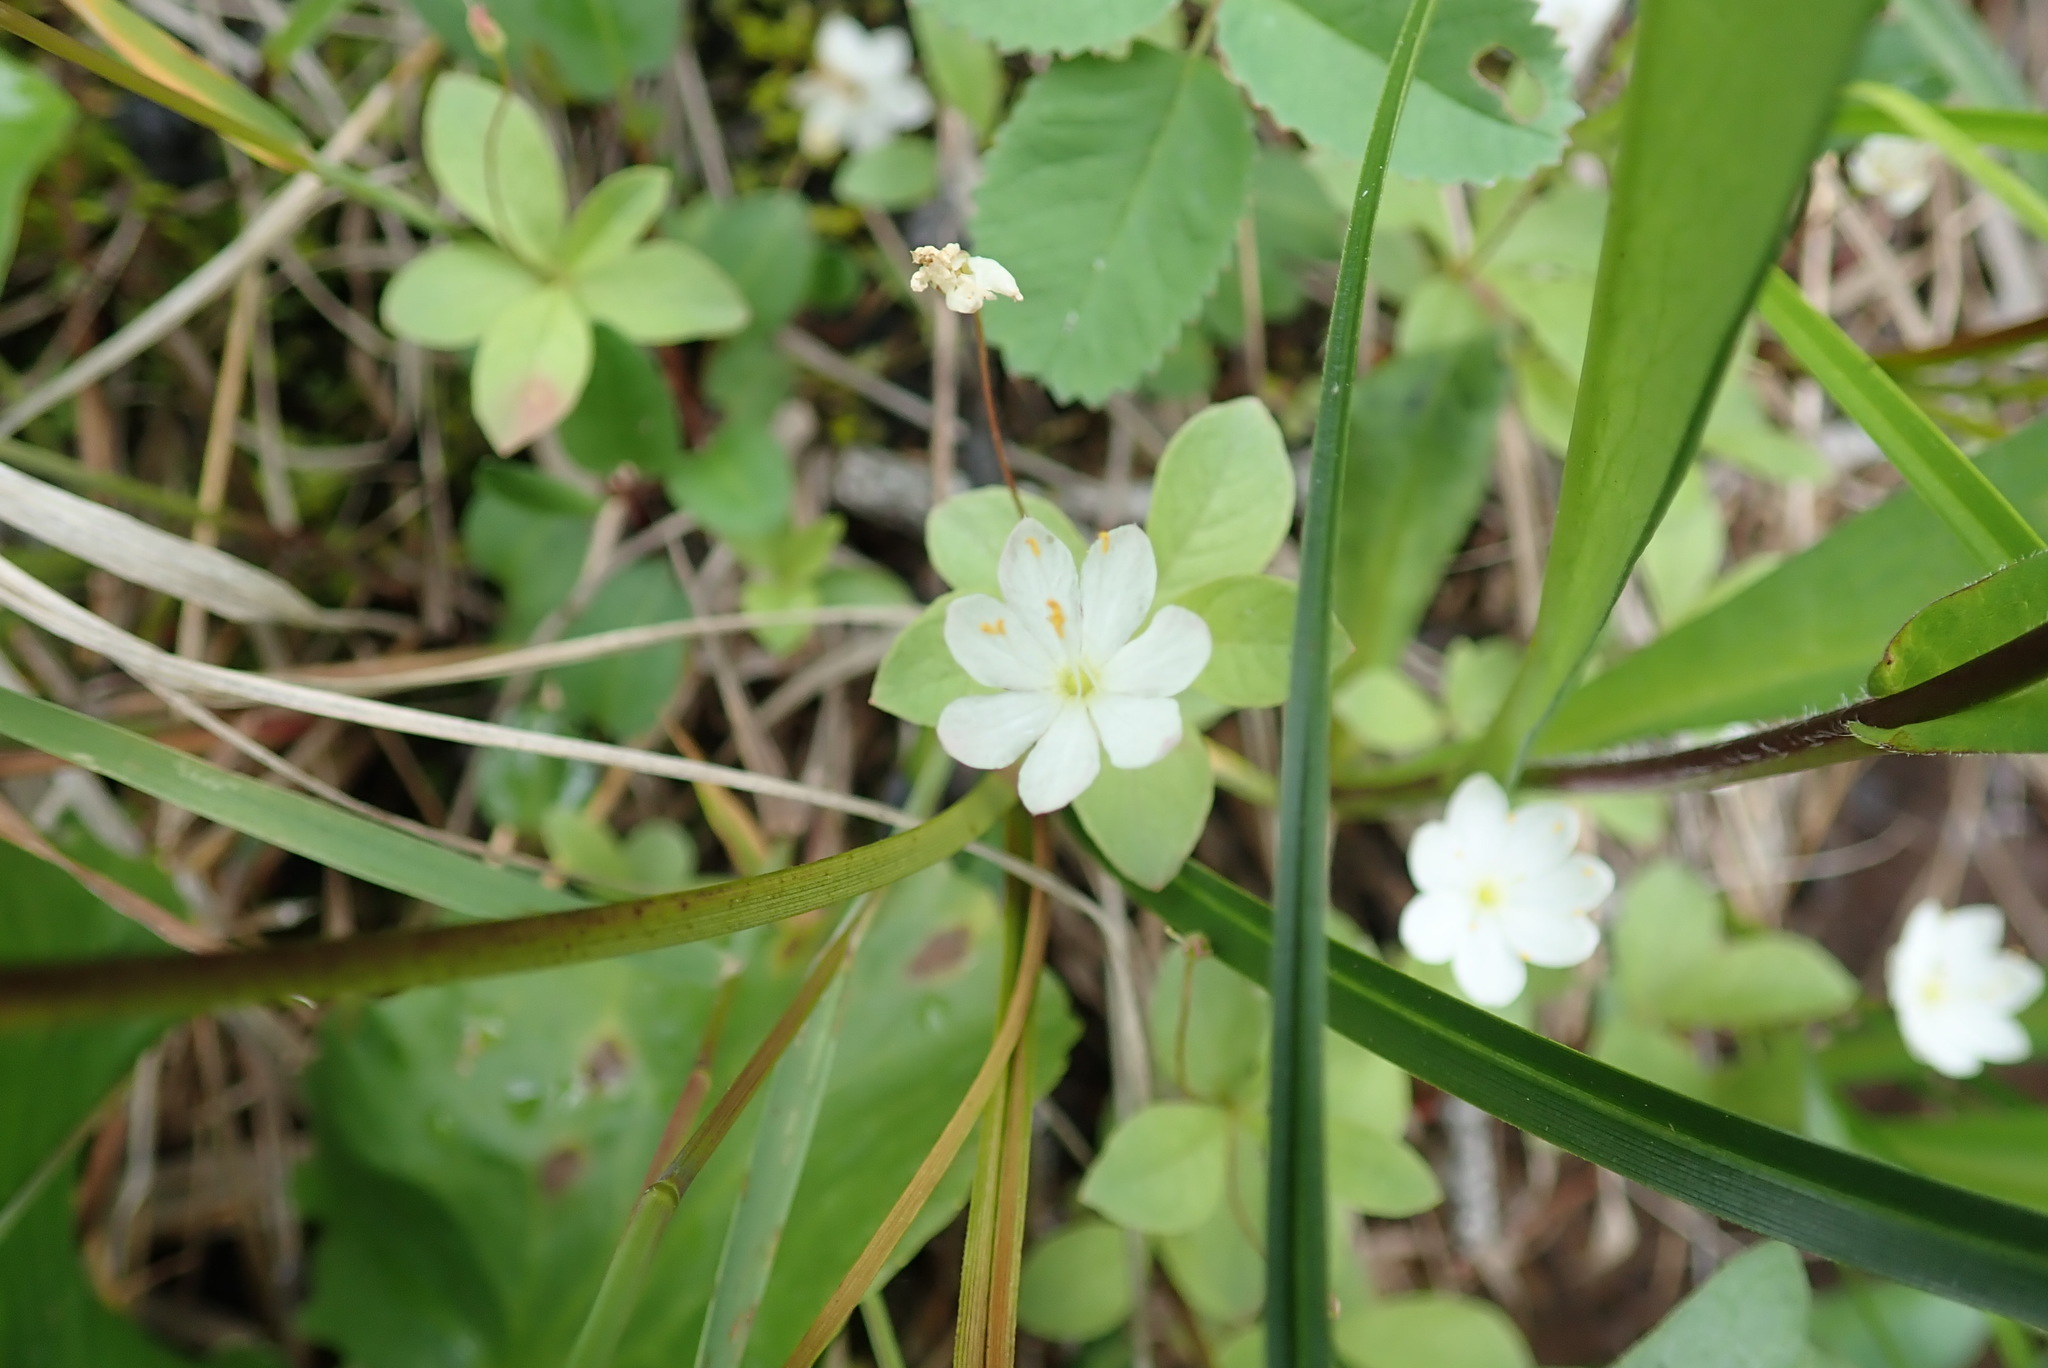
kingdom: Plantae
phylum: Tracheophyta
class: Magnoliopsida
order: Ericales
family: Primulaceae
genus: Lysimachia
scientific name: Lysimachia europaea
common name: Arctic starflower
